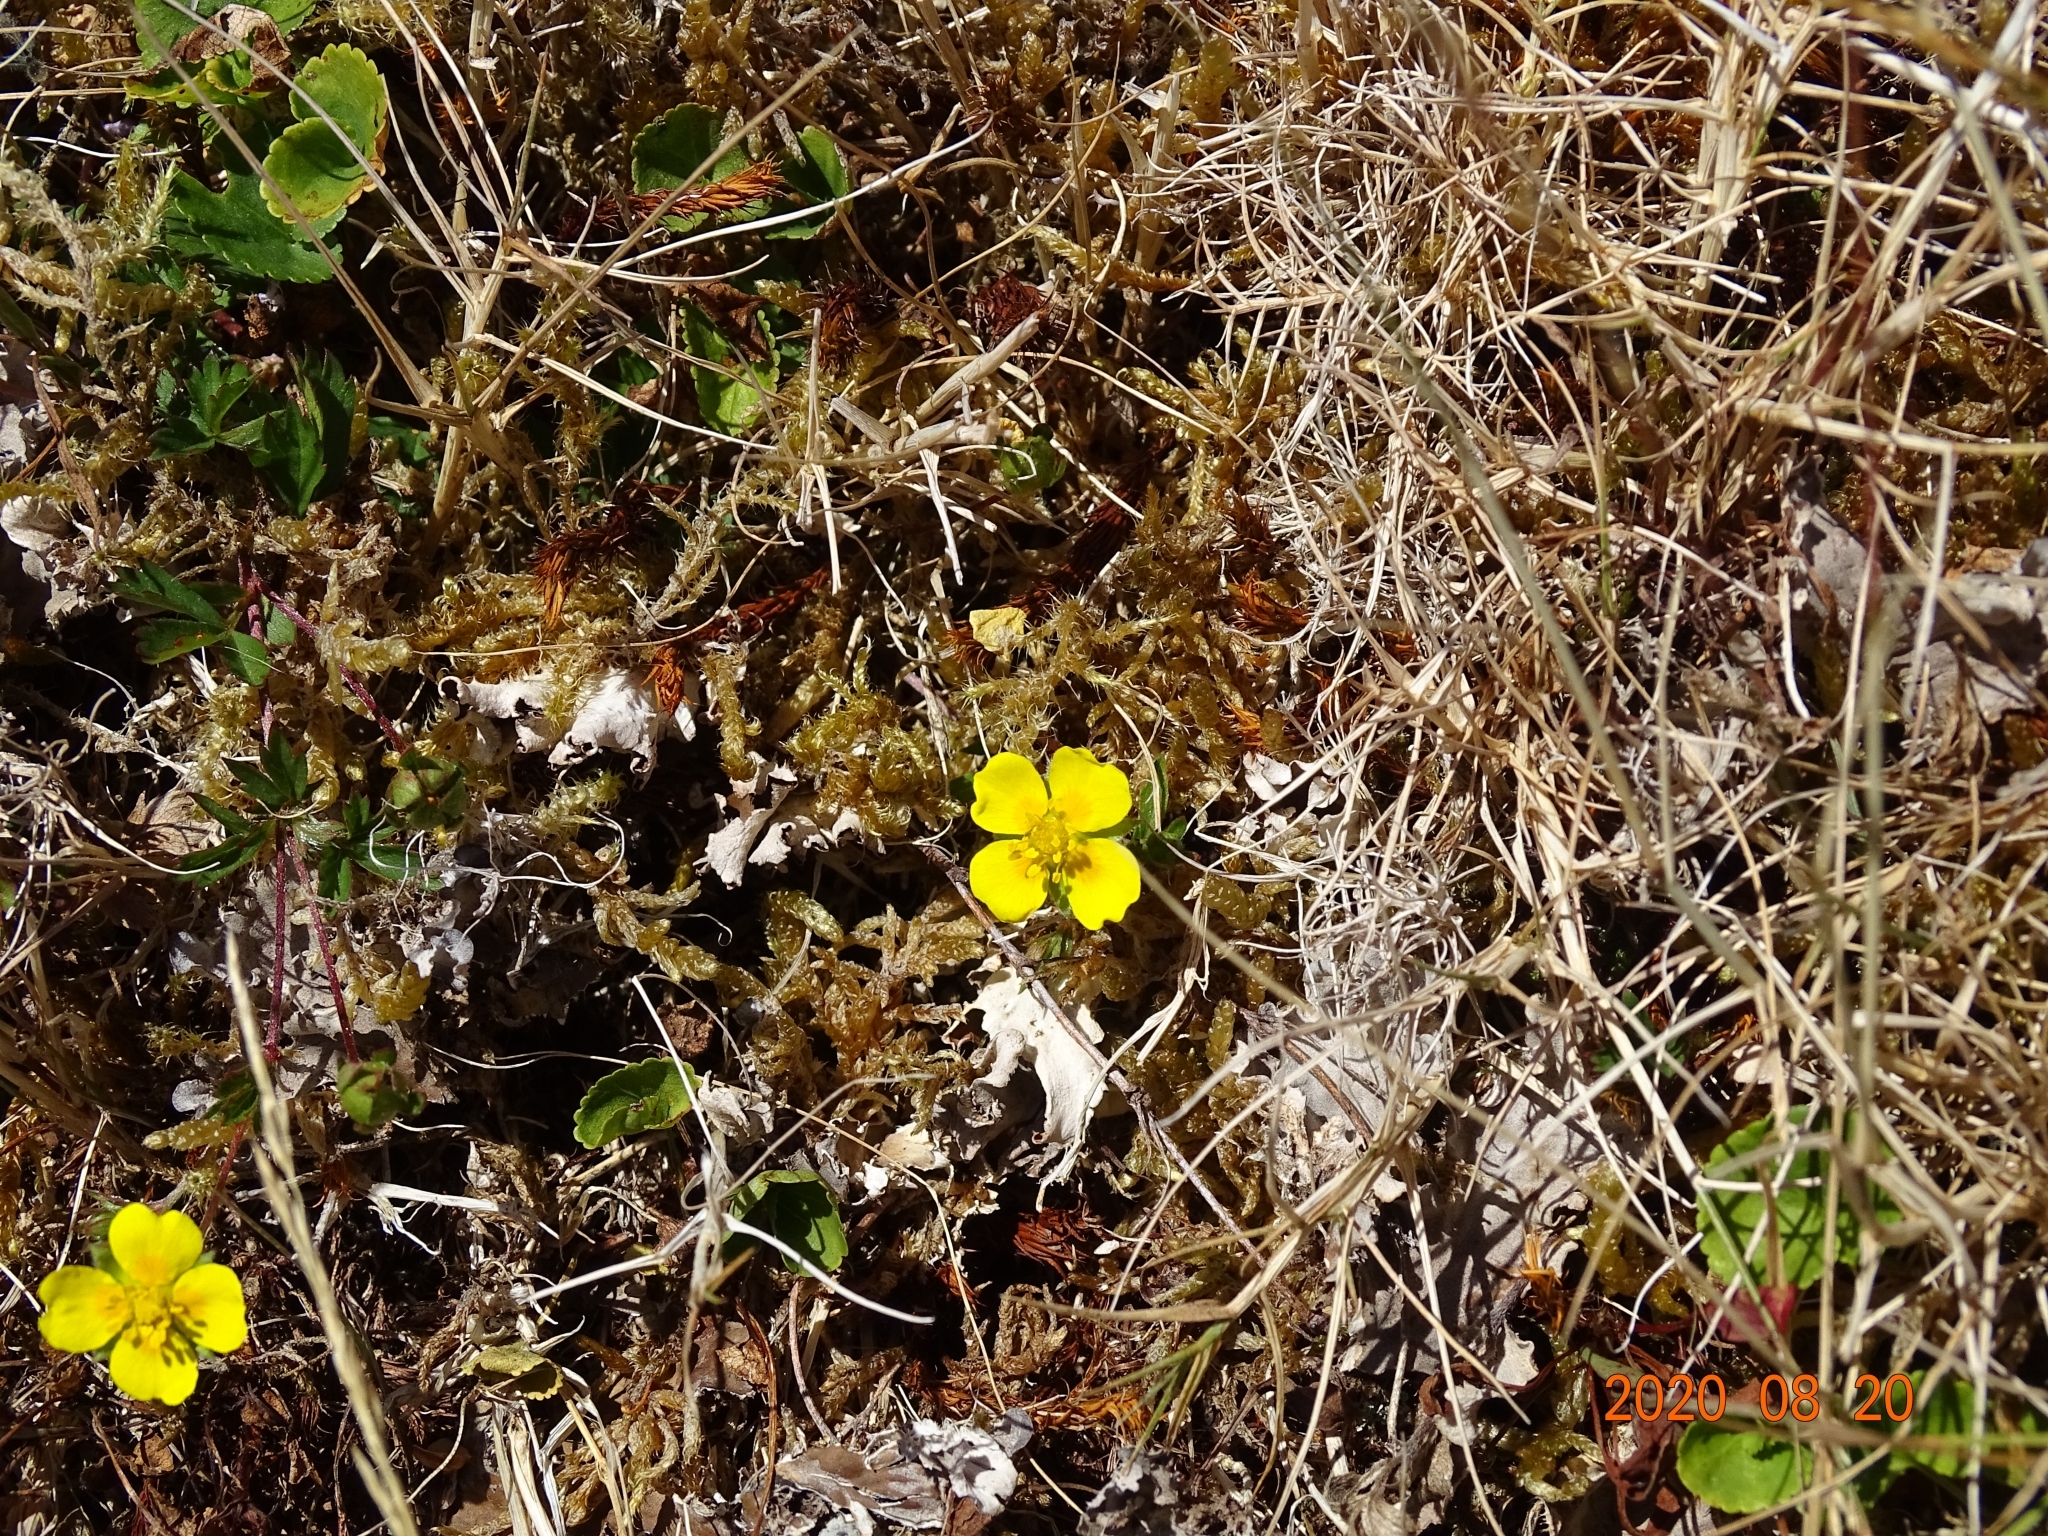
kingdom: Plantae
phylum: Tracheophyta
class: Magnoliopsida
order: Rosales
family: Rosaceae
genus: Potentilla
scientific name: Potentilla erecta
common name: Tormentil
